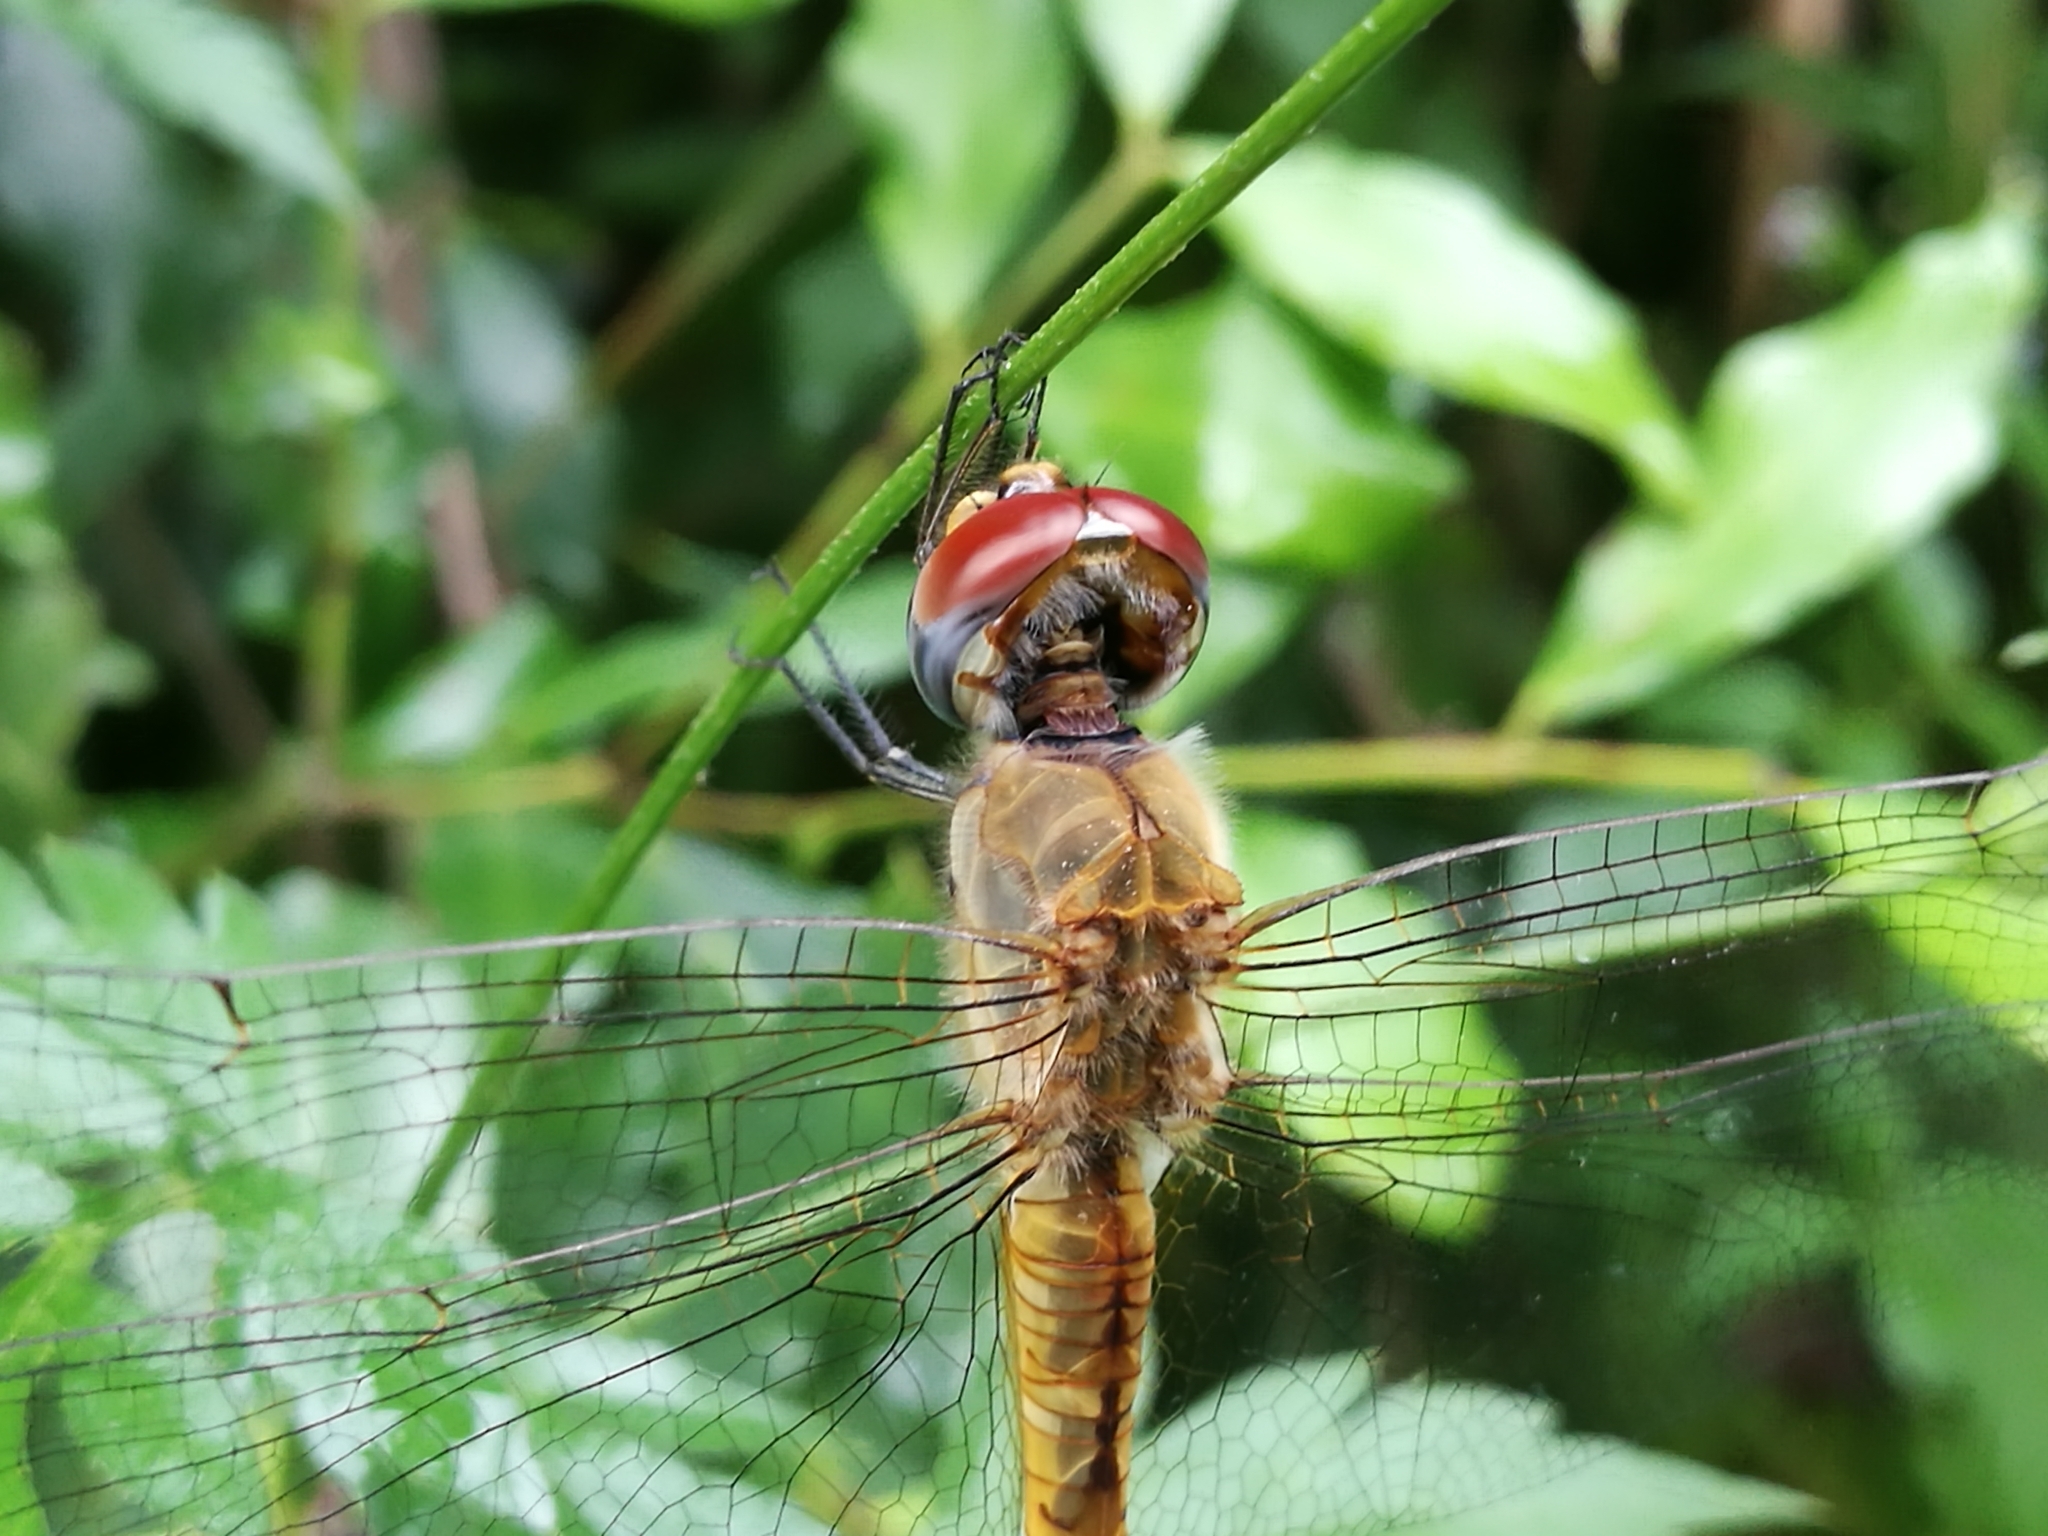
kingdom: Animalia
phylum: Arthropoda
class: Insecta
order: Odonata
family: Libellulidae
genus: Pantala
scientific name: Pantala flavescens
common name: Wandering glider
